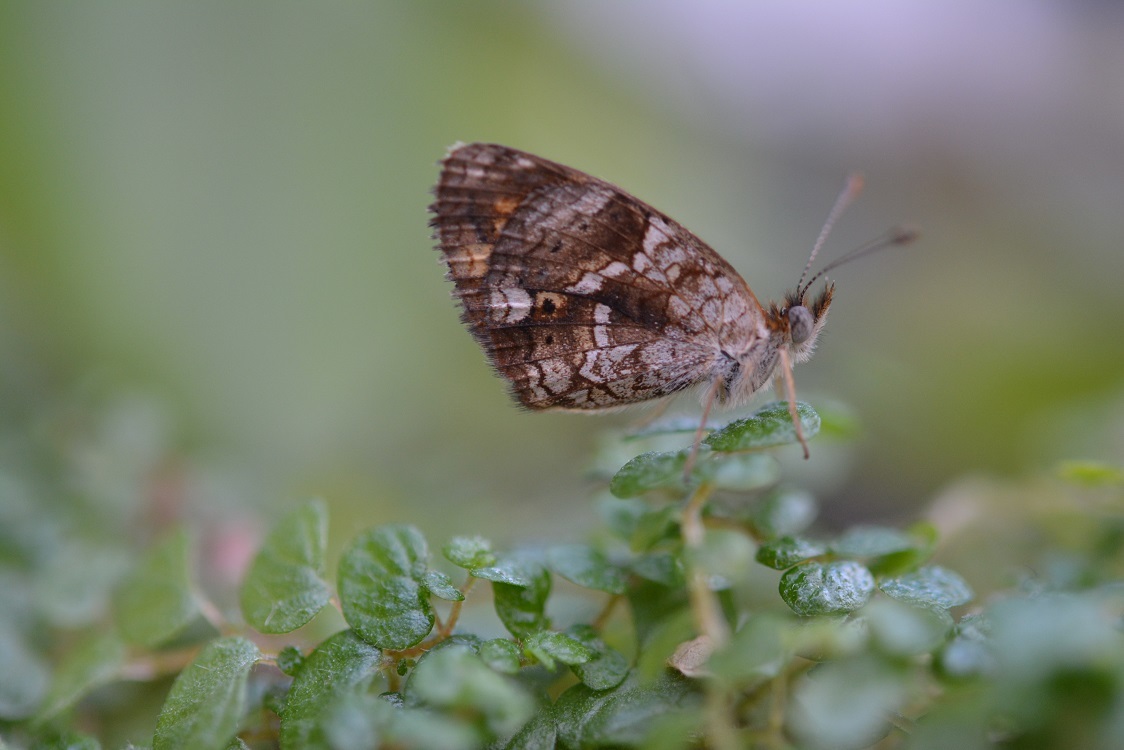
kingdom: Animalia
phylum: Arthropoda
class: Insecta
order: Lepidoptera
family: Nymphalidae
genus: Phyciodes
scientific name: Phyciodes vesta
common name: Vesta crescent
